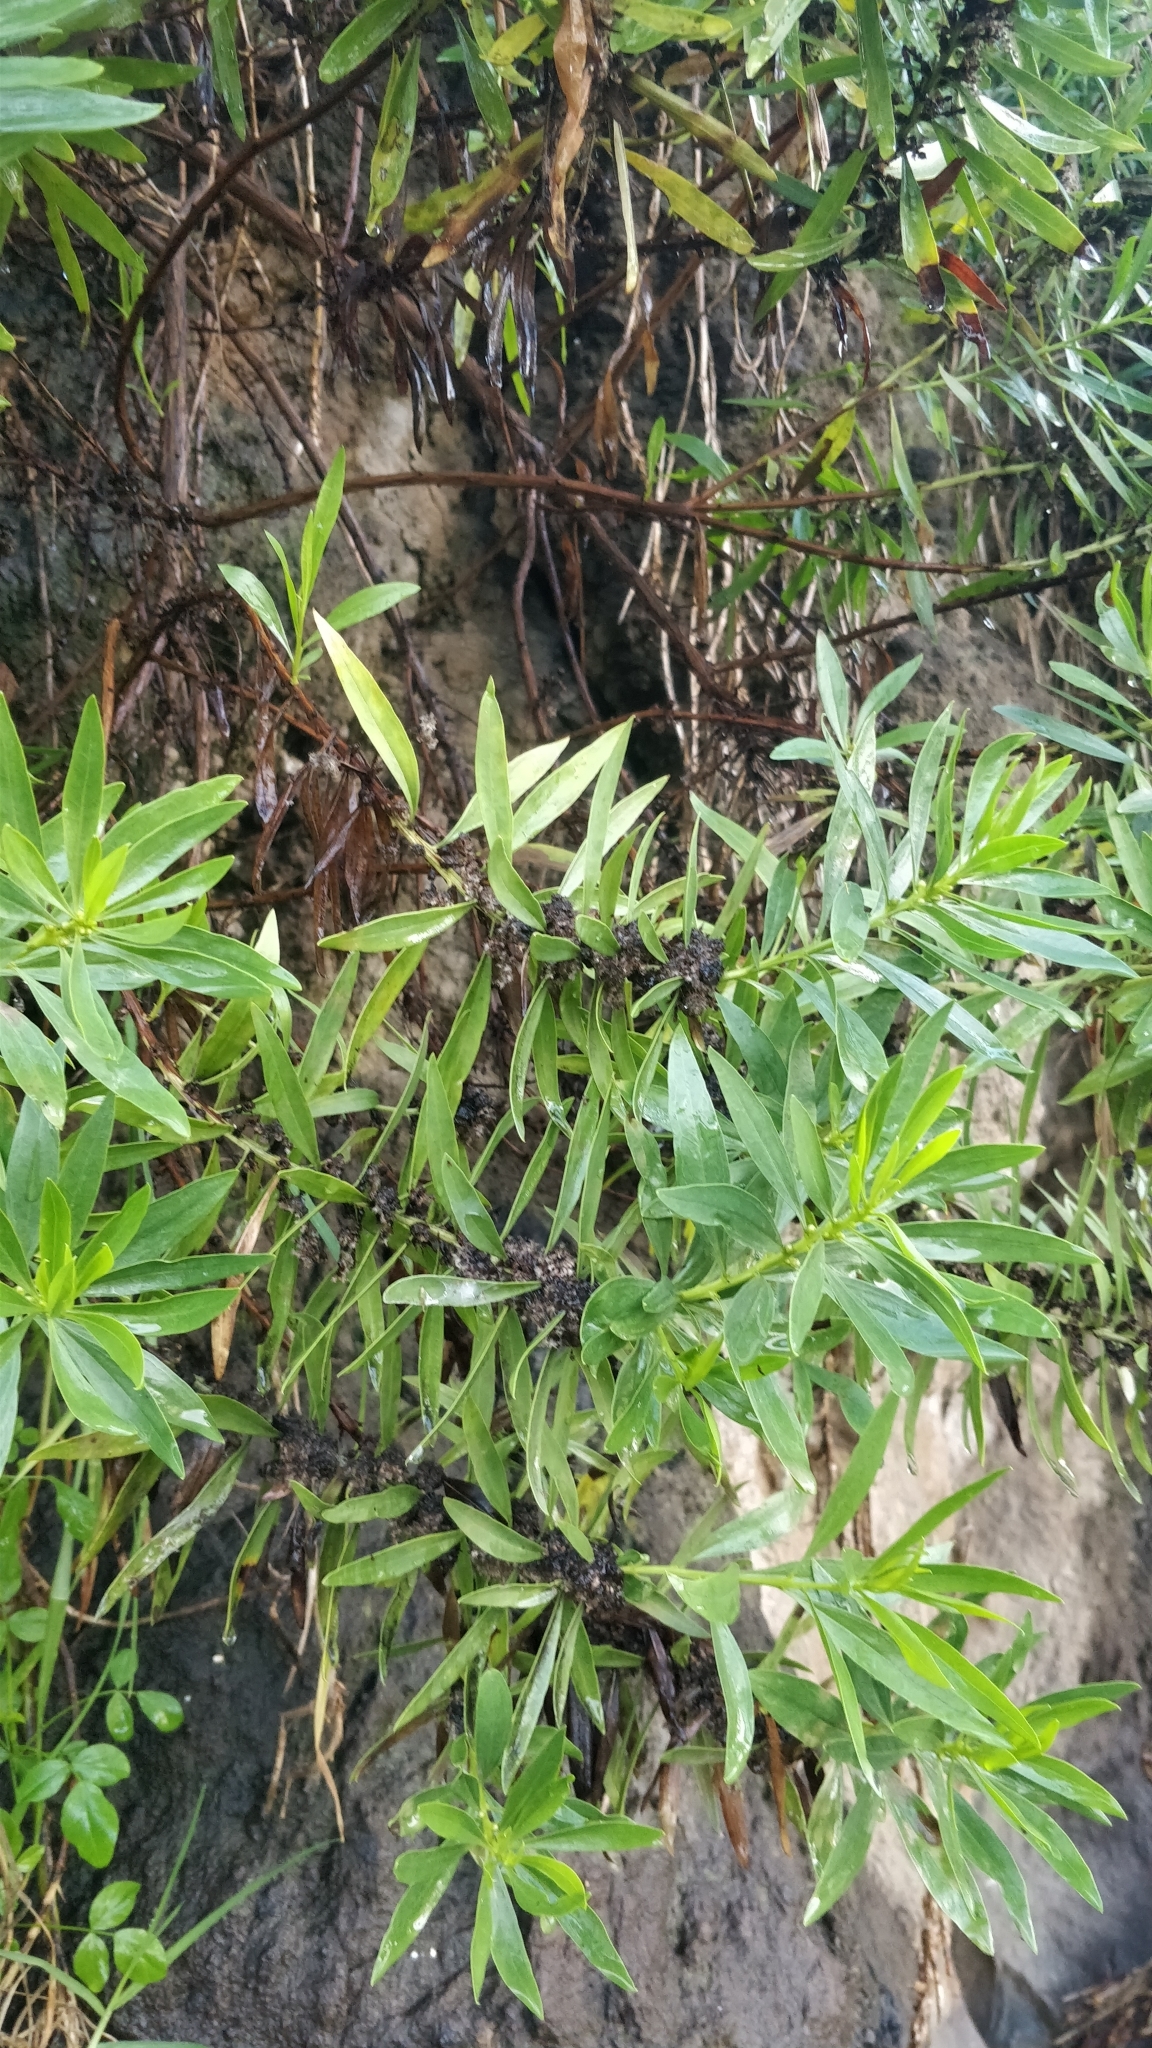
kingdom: Plantae
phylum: Tracheophyta
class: Magnoliopsida
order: Lamiales
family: Plantaginaceae
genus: Globularia
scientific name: Globularia salicina
